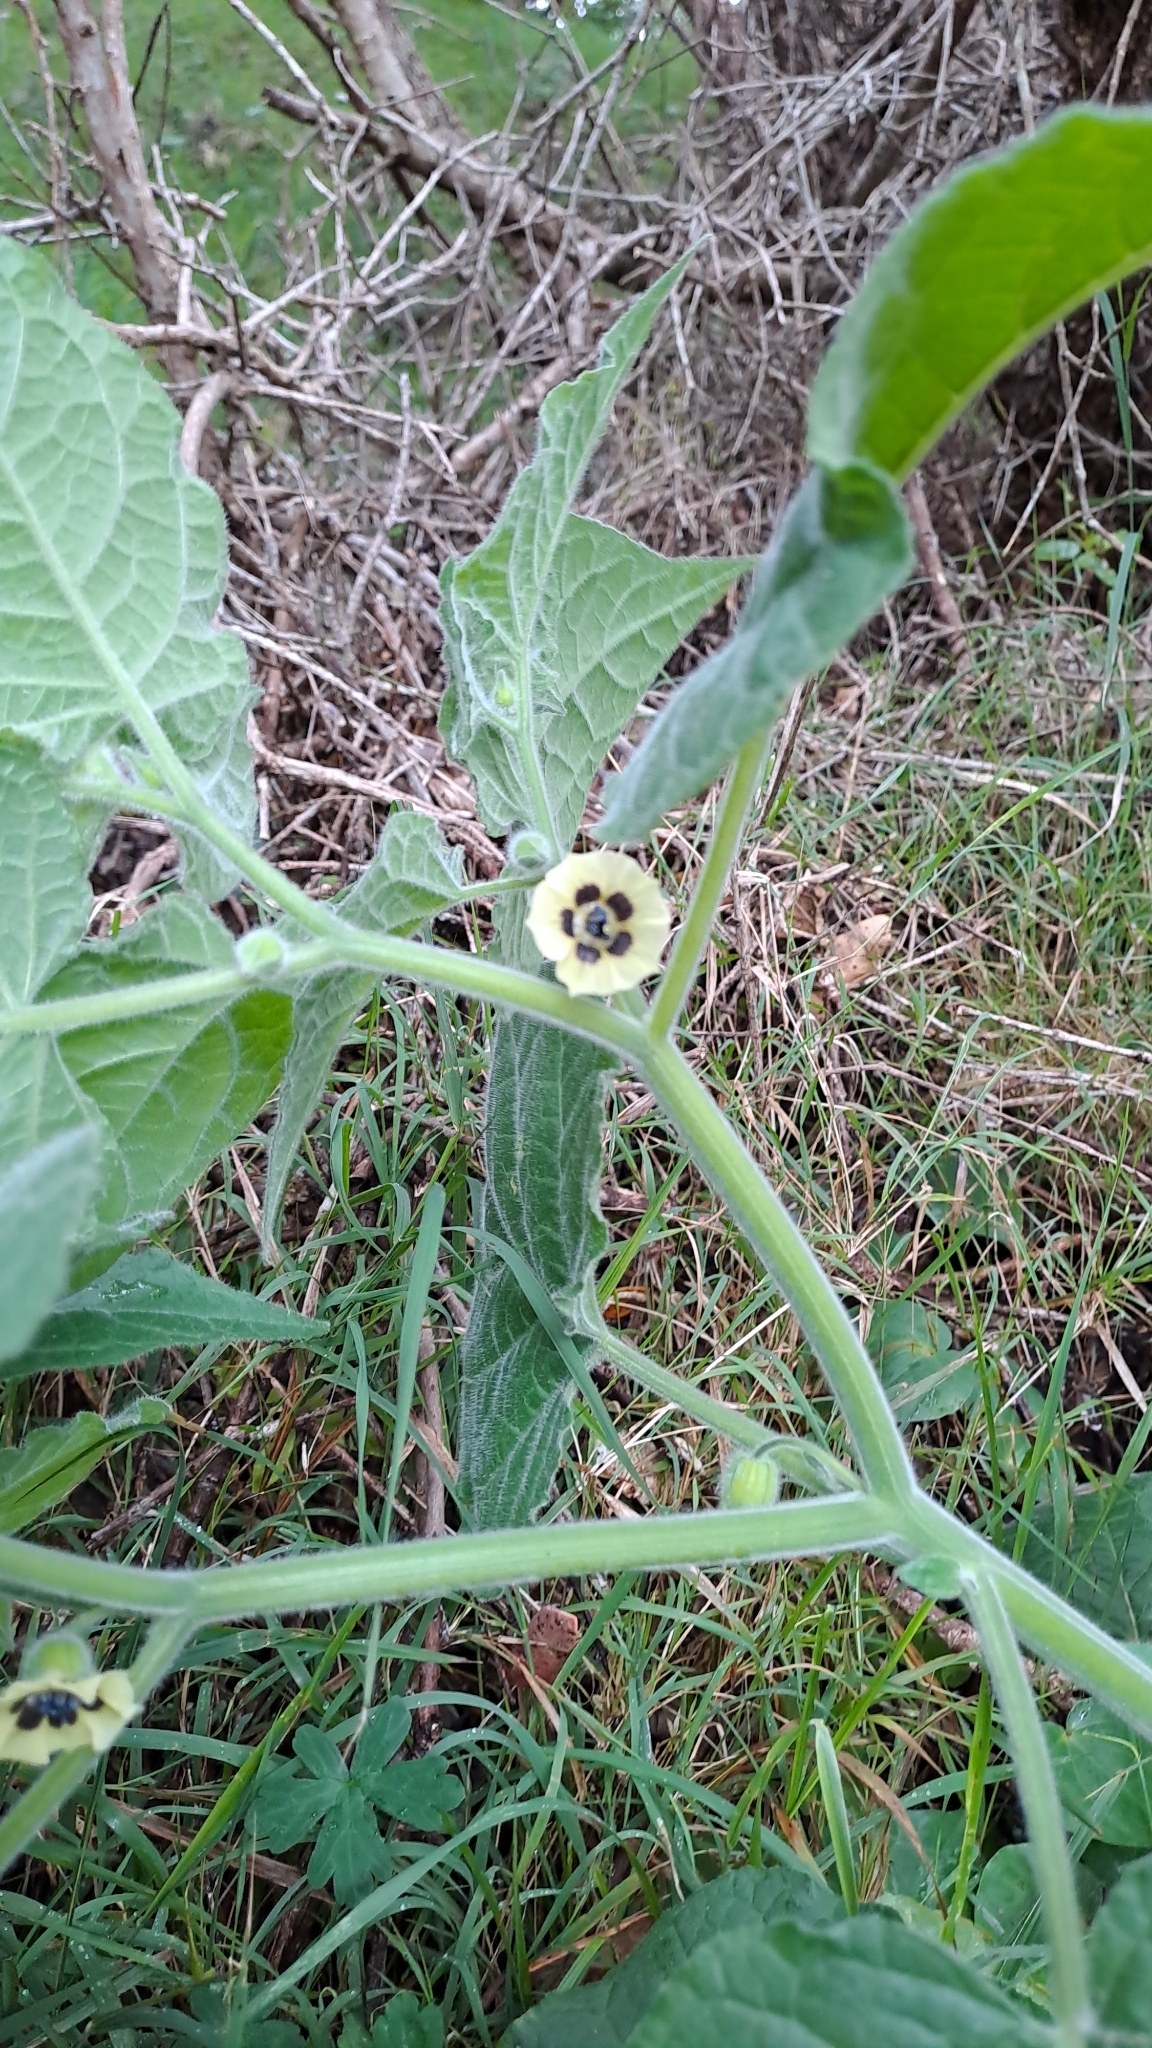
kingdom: Plantae
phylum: Tracheophyta
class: Magnoliopsida
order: Solanales
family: Solanaceae
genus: Physalis
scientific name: Physalis peruviana
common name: Cape-gooseberry
